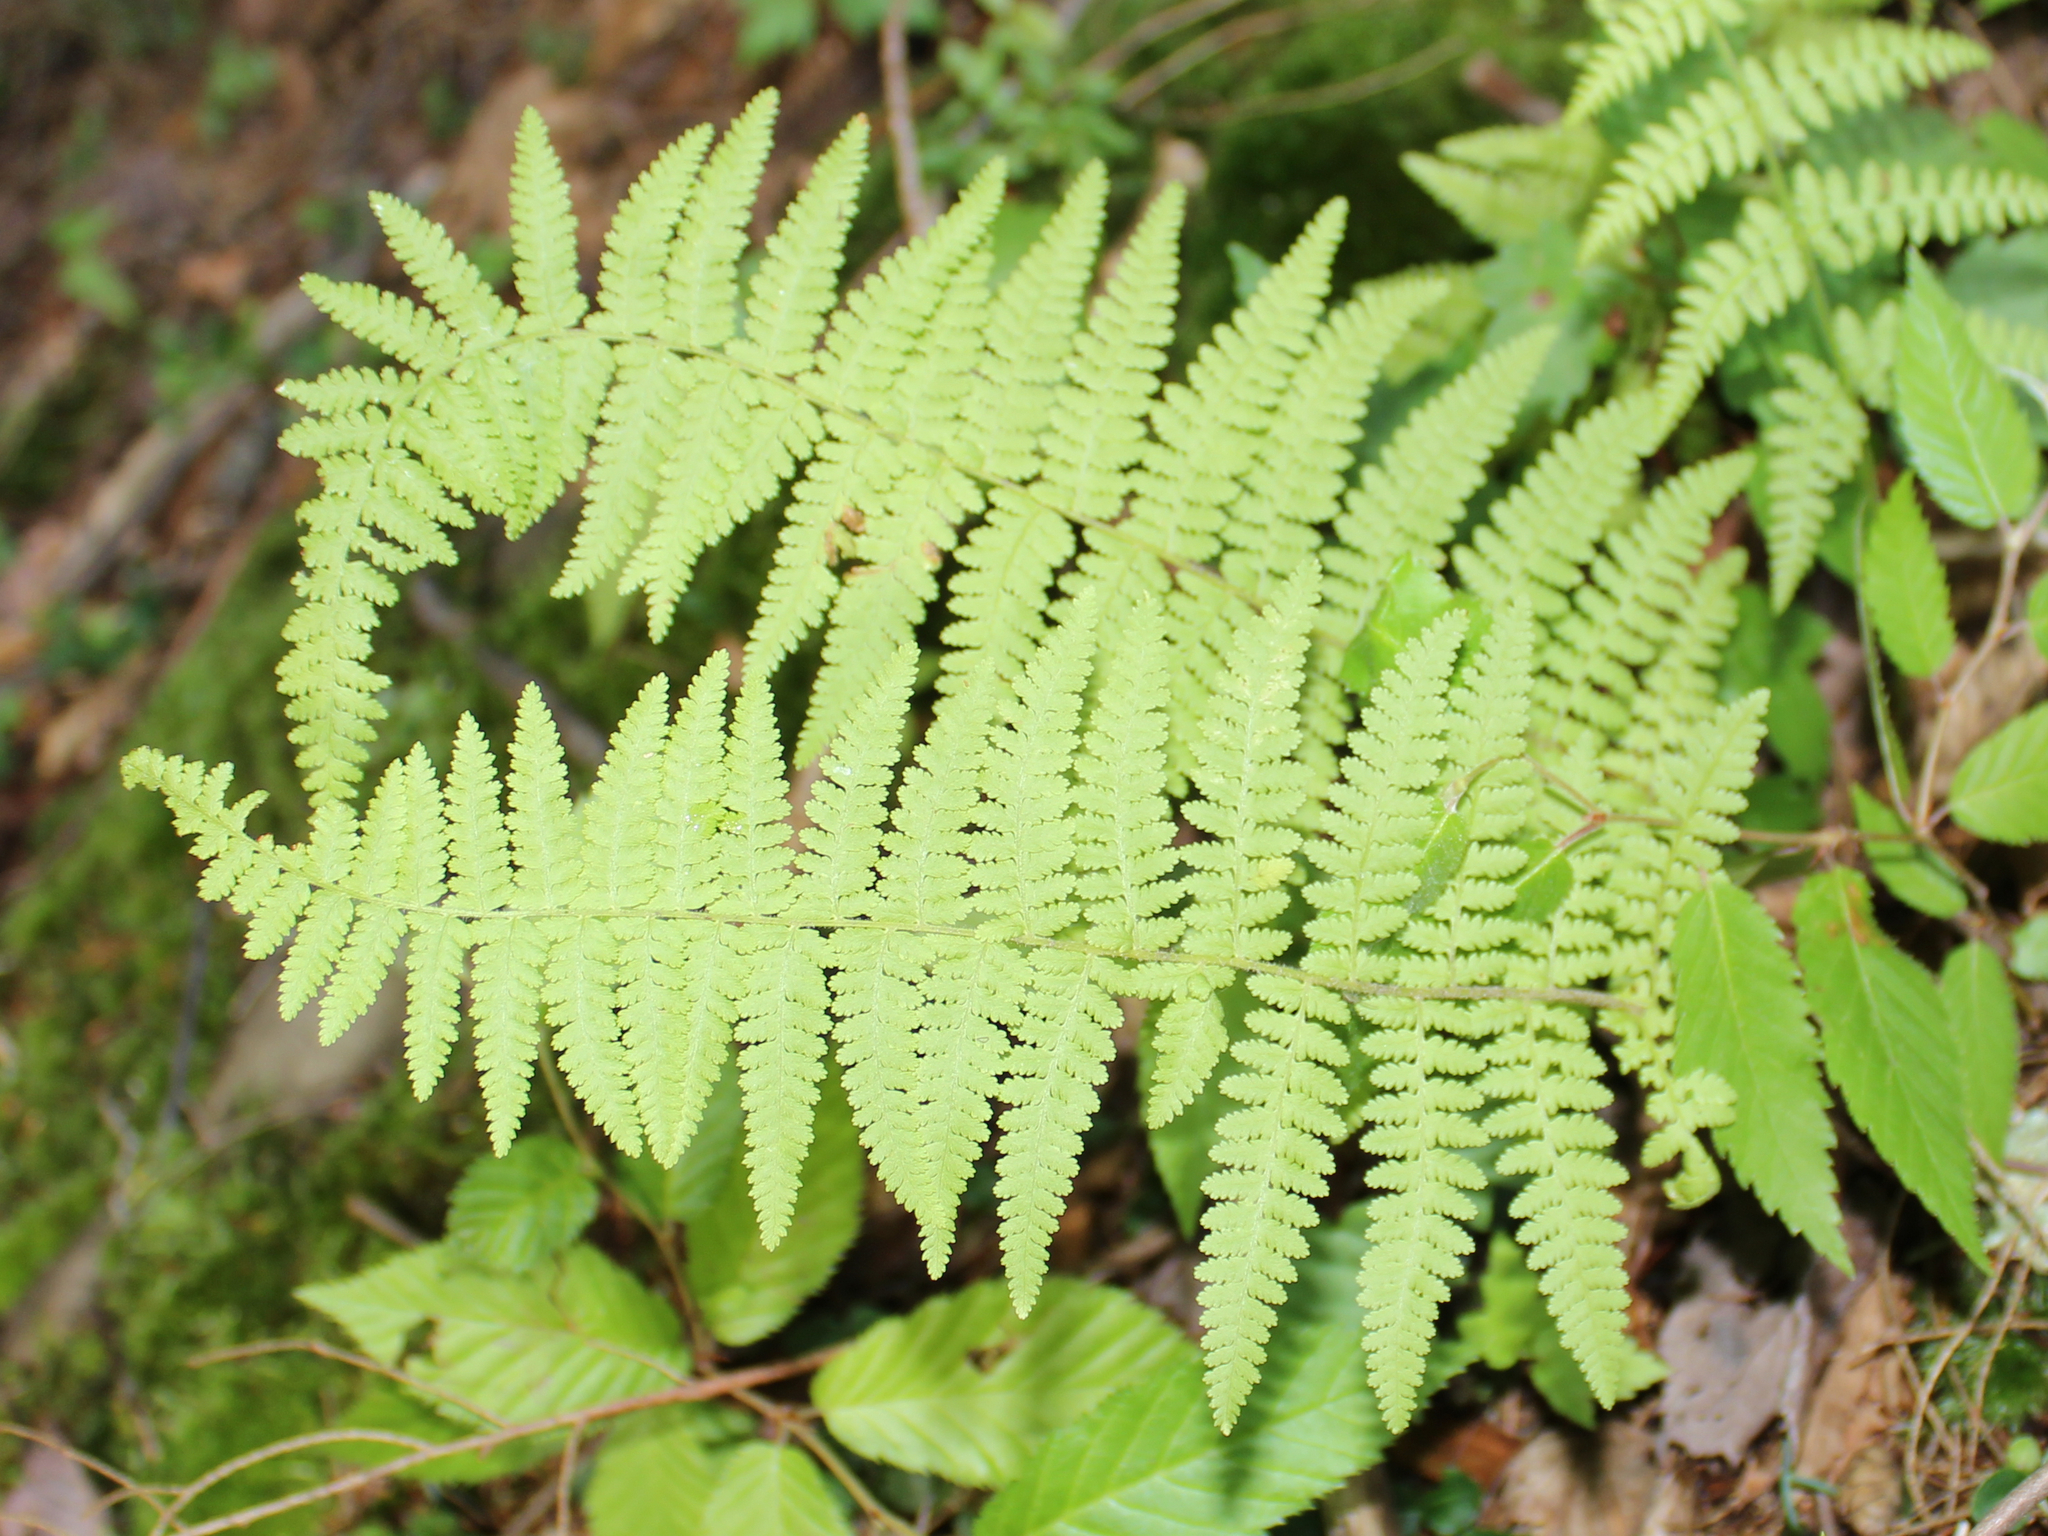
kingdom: Plantae
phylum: Tracheophyta
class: Polypodiopsida
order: Polypodiales
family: Dennstaedtiaceae
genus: Sitobolium
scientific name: Sitobolium punctilobum
